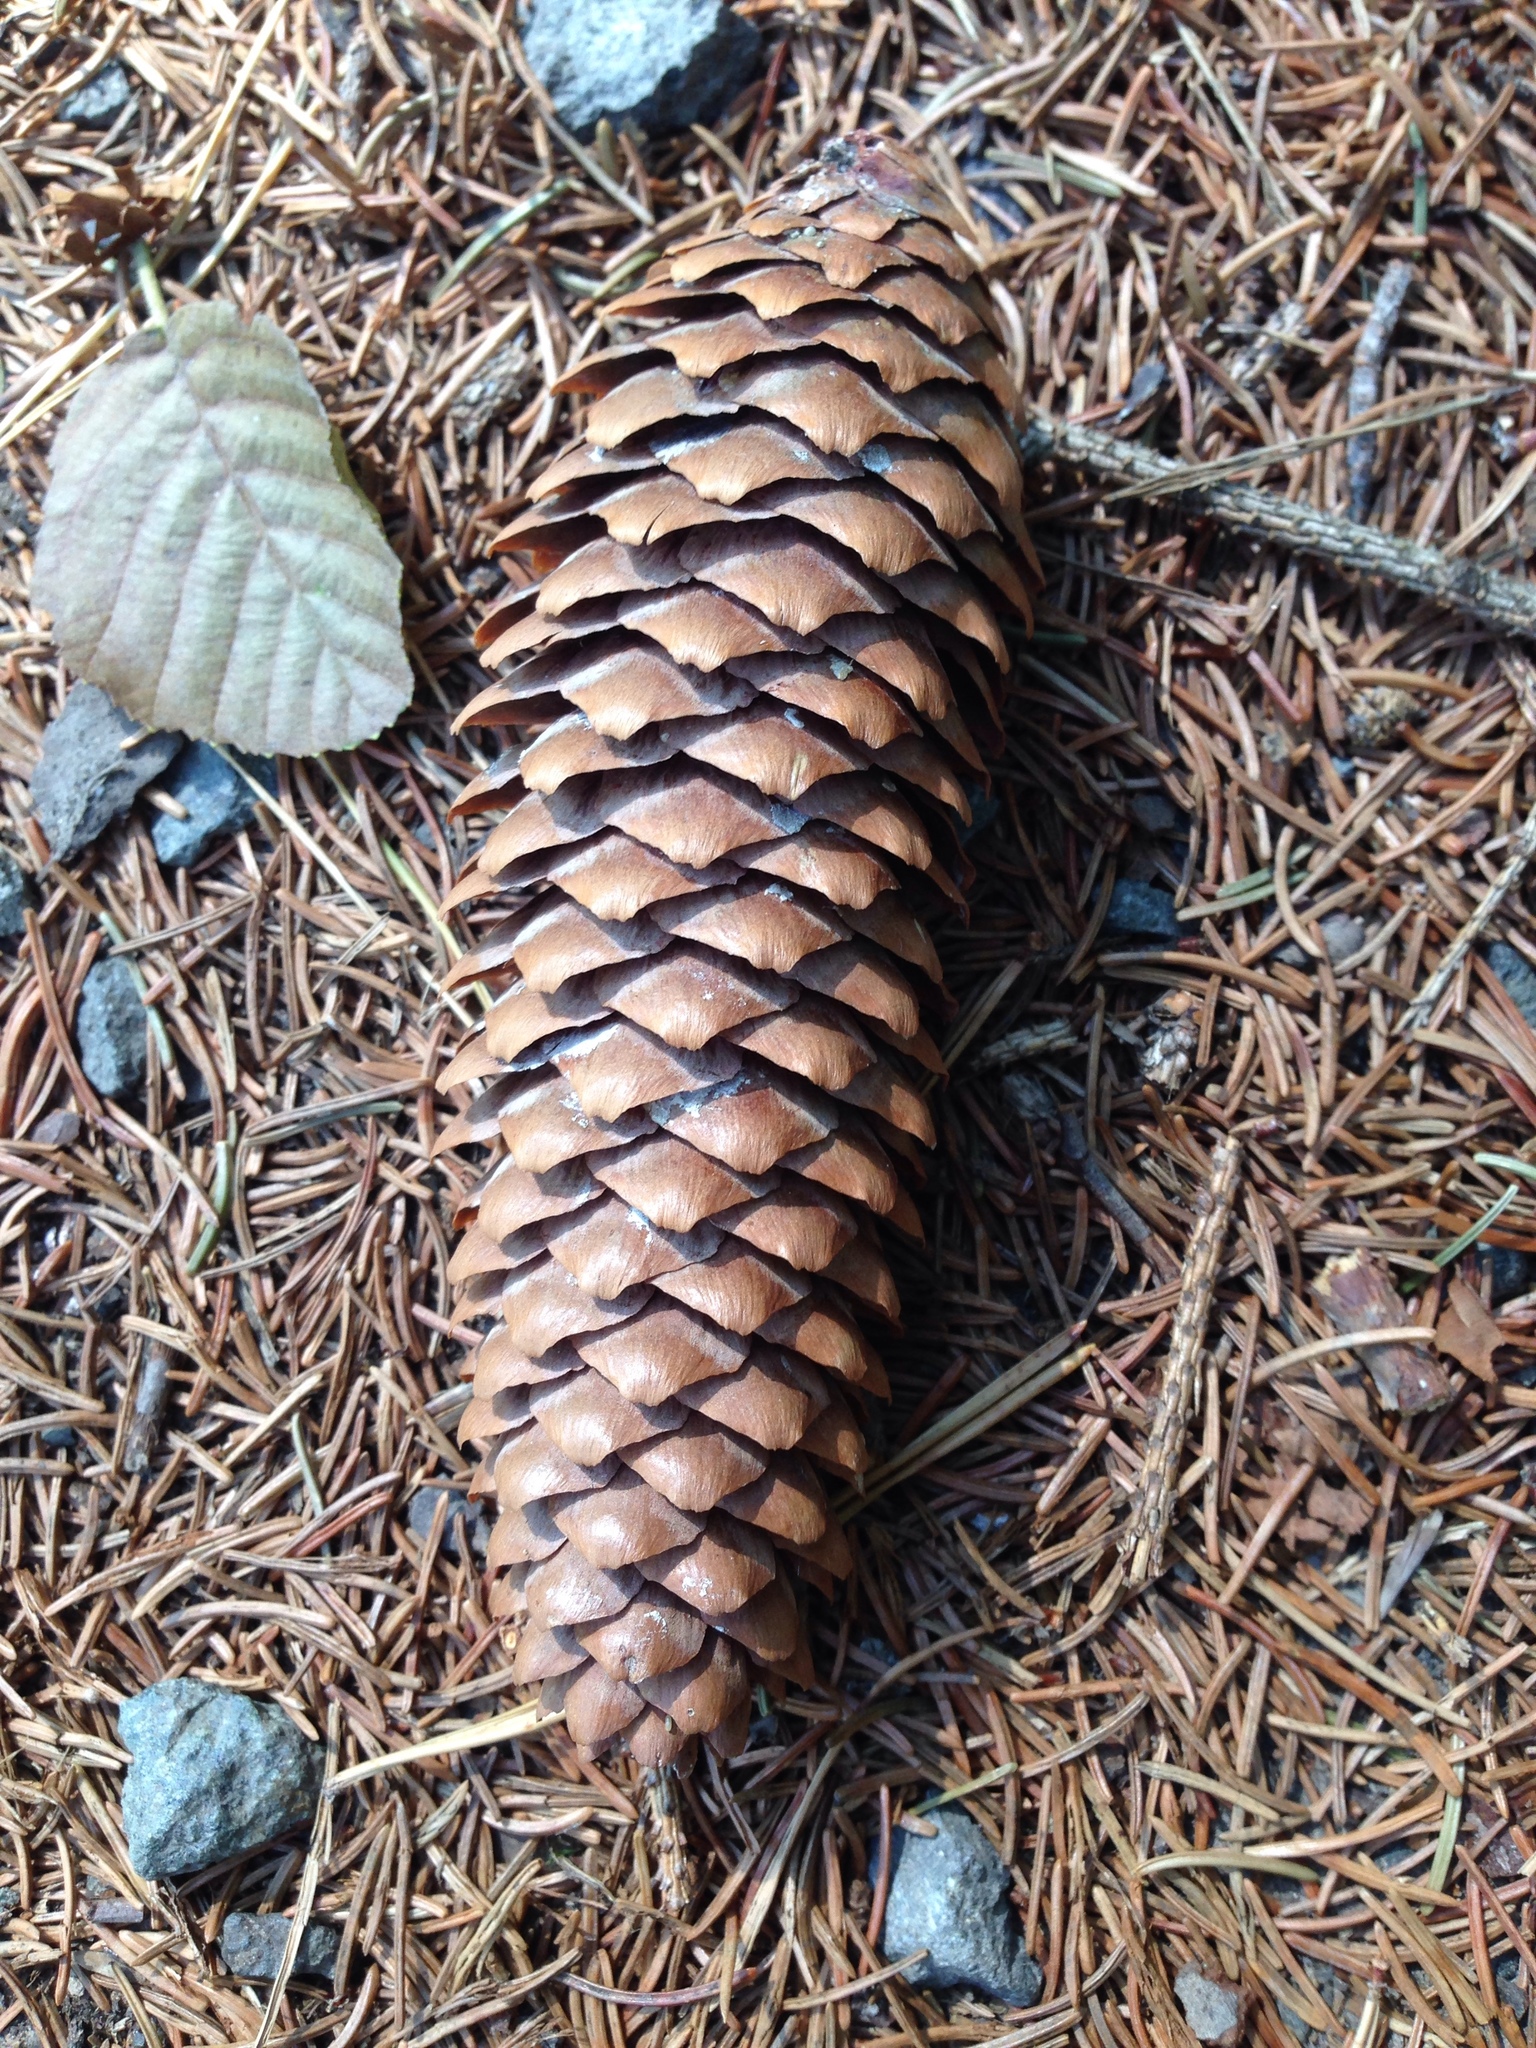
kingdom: Plantae
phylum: Tracheophyta
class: Pinopsida
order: Pinales
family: Pinaceae
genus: Picea
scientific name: Picea abies
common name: Norway spruce
